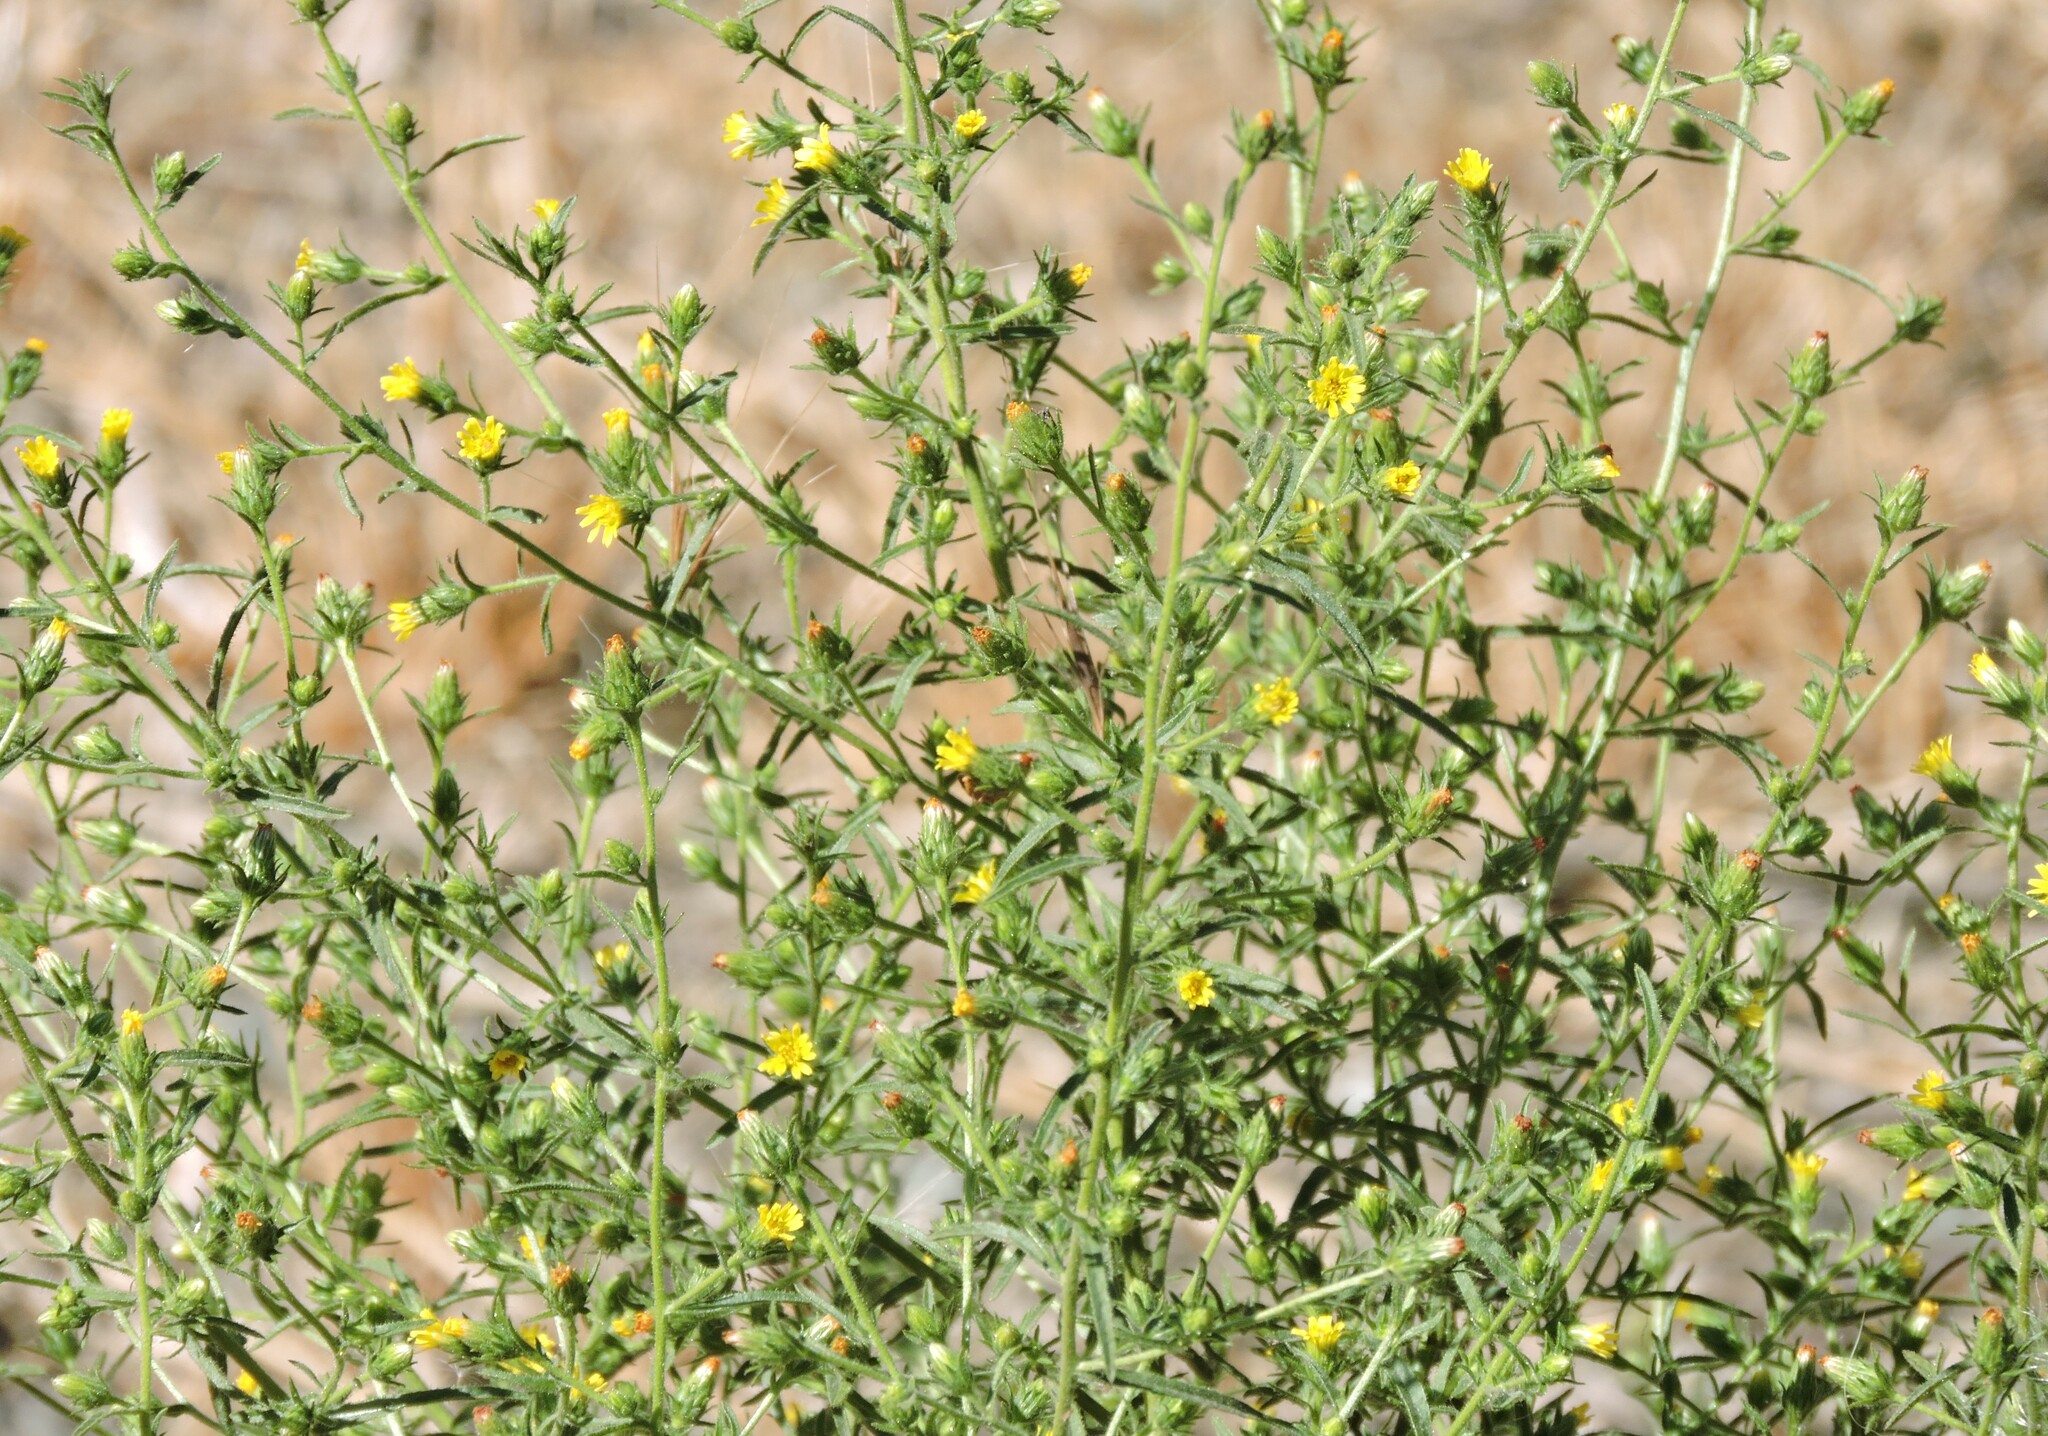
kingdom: Plantae
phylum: Tracheophyta
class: Magnoliopsida
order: Asterales
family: Asteraceae
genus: Dittrichia
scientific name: Dittrichia graveolens
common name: Stinking fleabane
